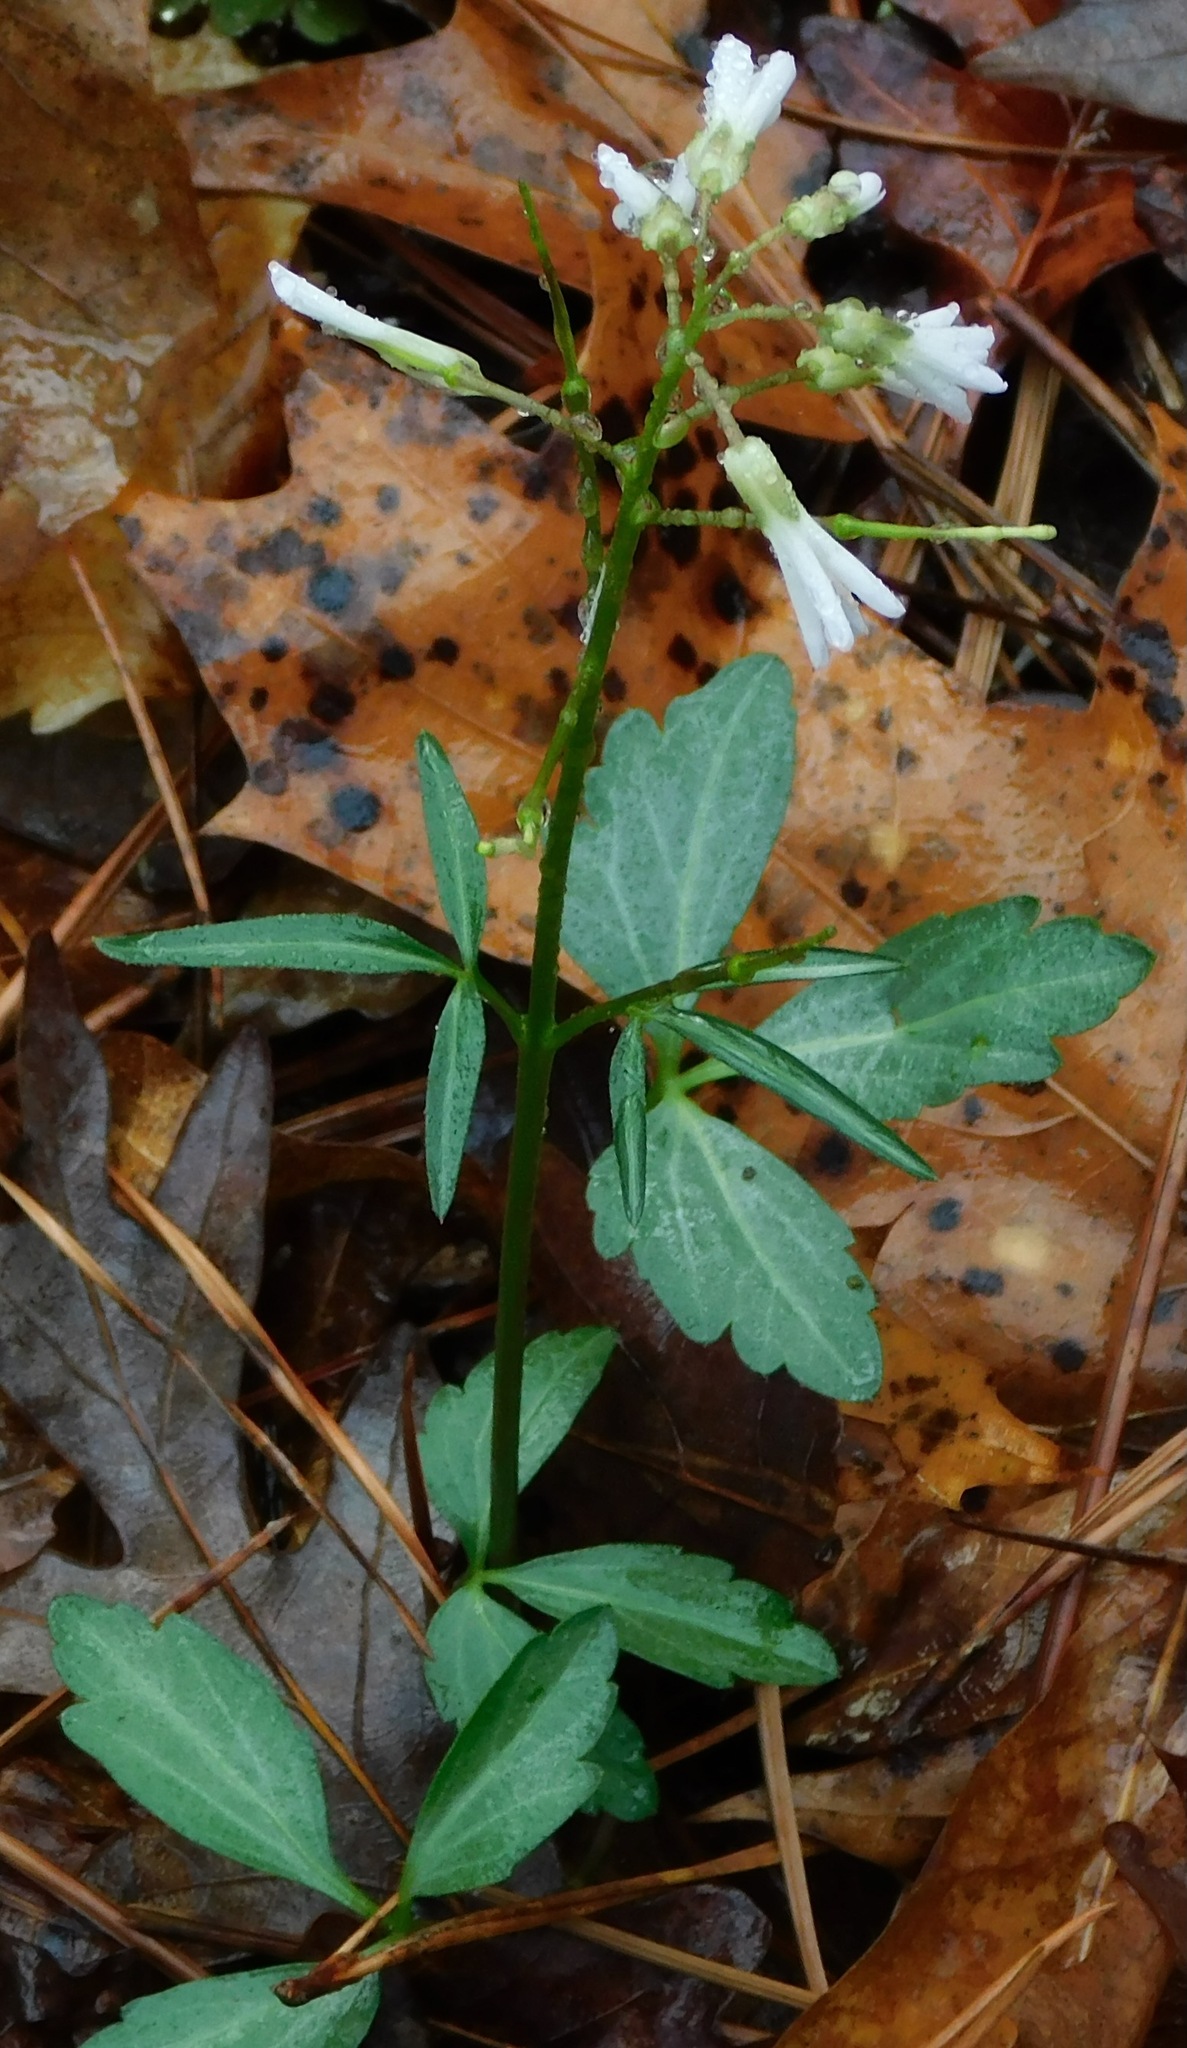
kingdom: Plantae
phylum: Tracheophyta
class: Magnoliopsida
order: Brassicales
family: Brassicaceae
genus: Cardamine
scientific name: Cardamine angustata
